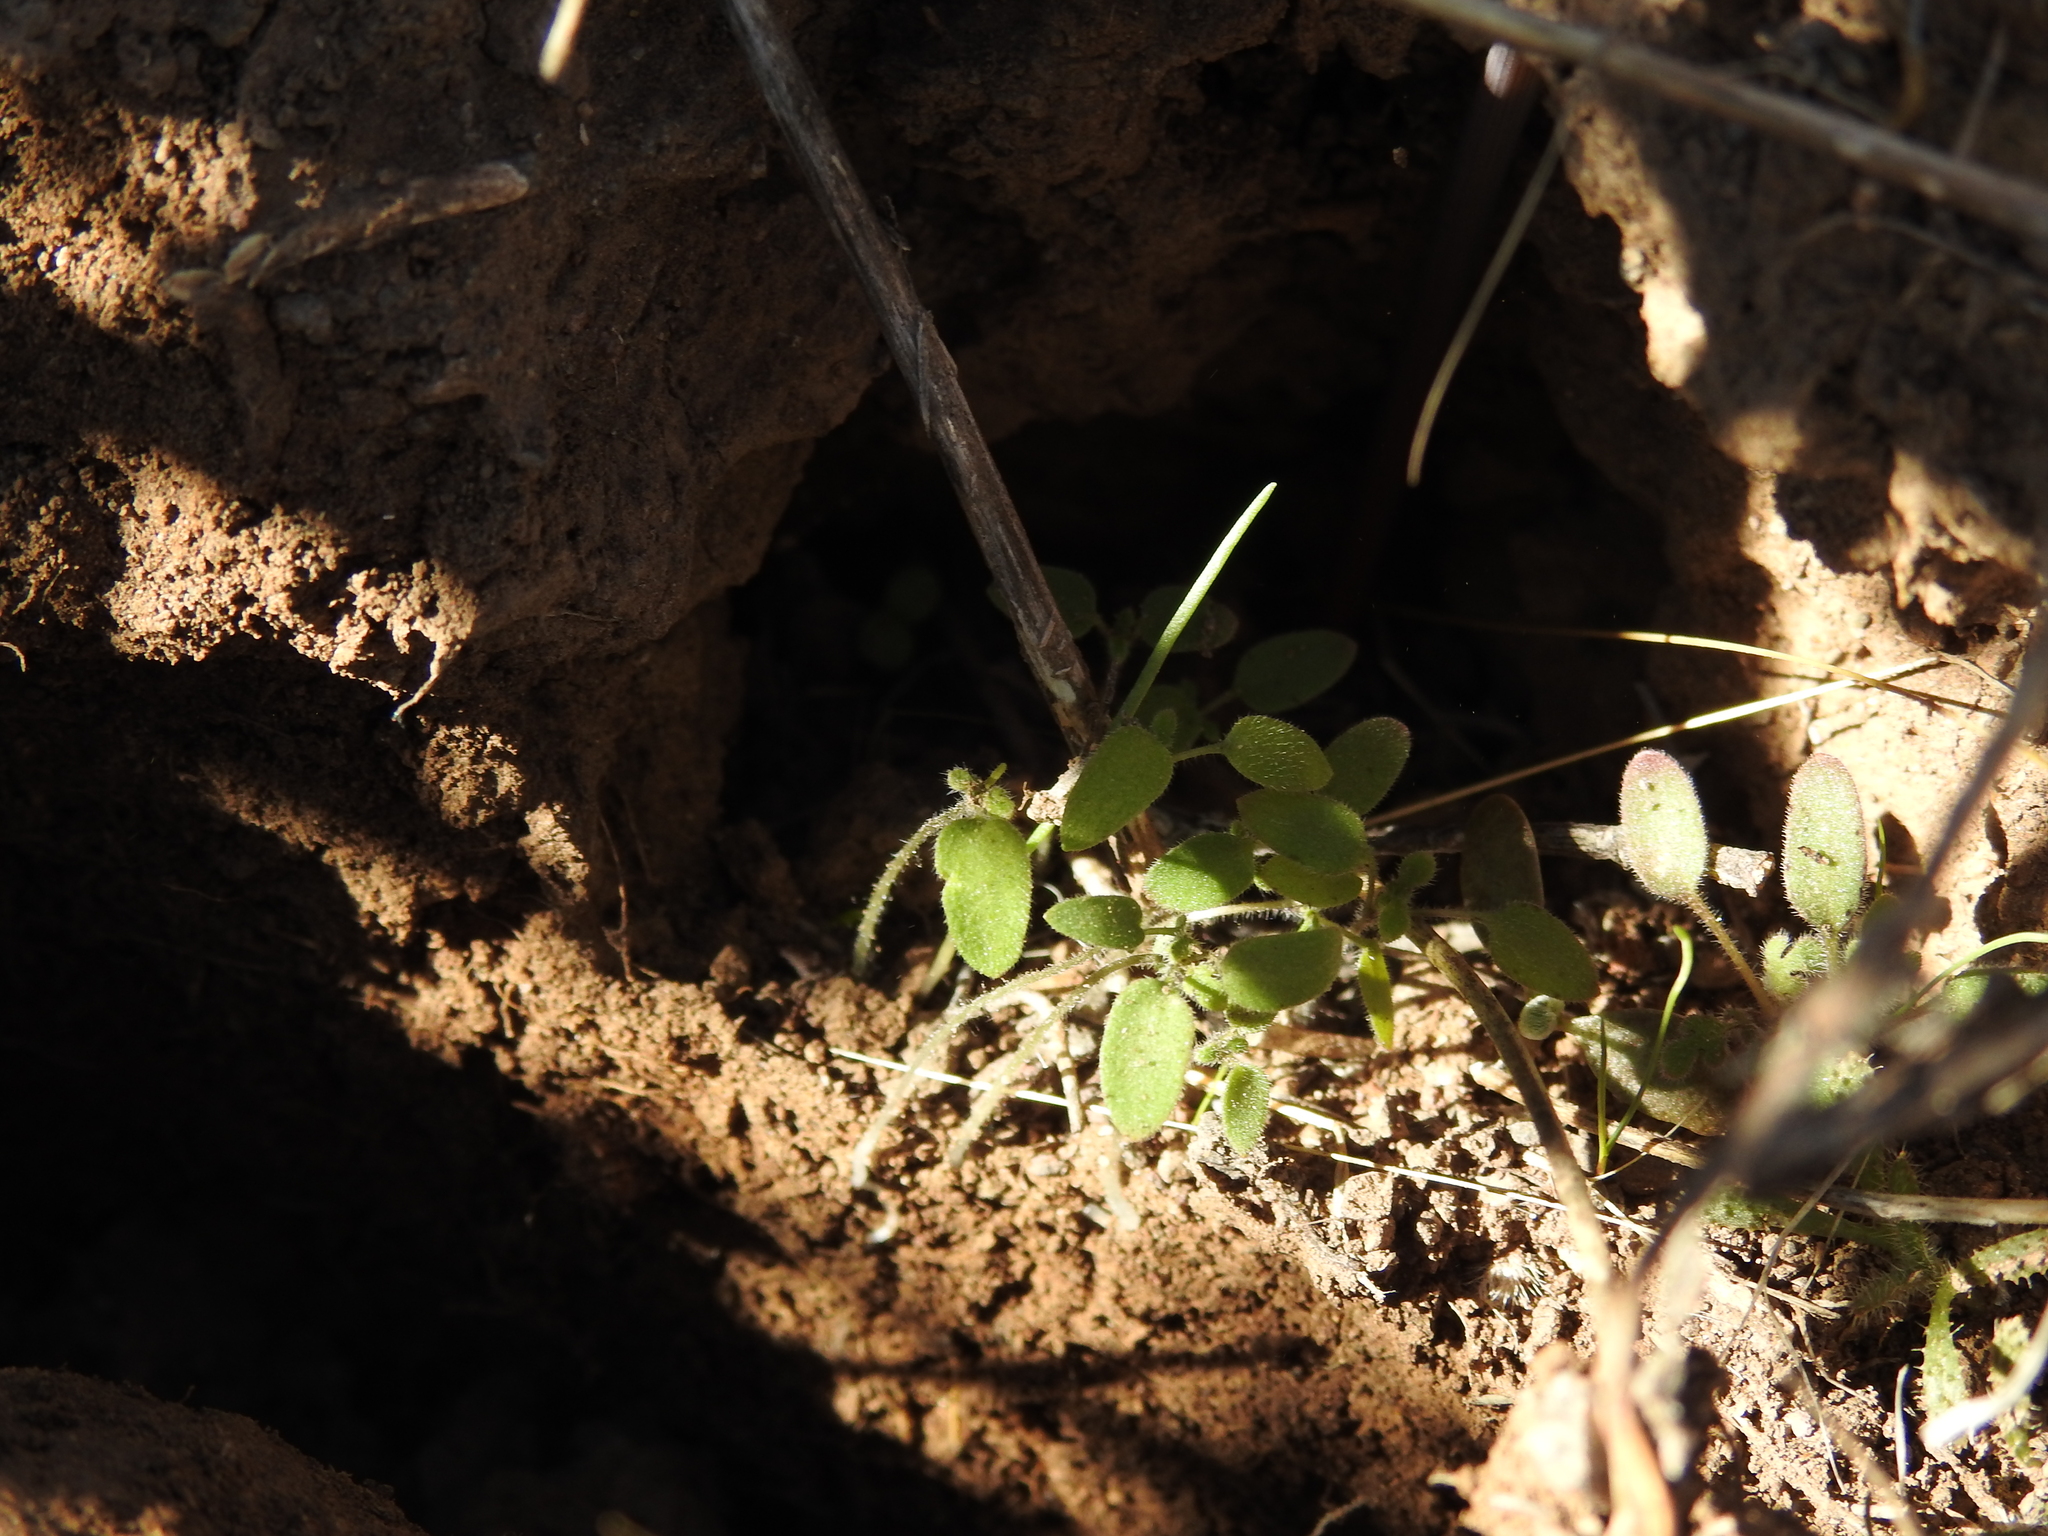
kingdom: Plantae
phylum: Tracheophyta
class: Magnoliopsida
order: Rosales
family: Urticaceae
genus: Parietaria
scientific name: Parietaria hespera
